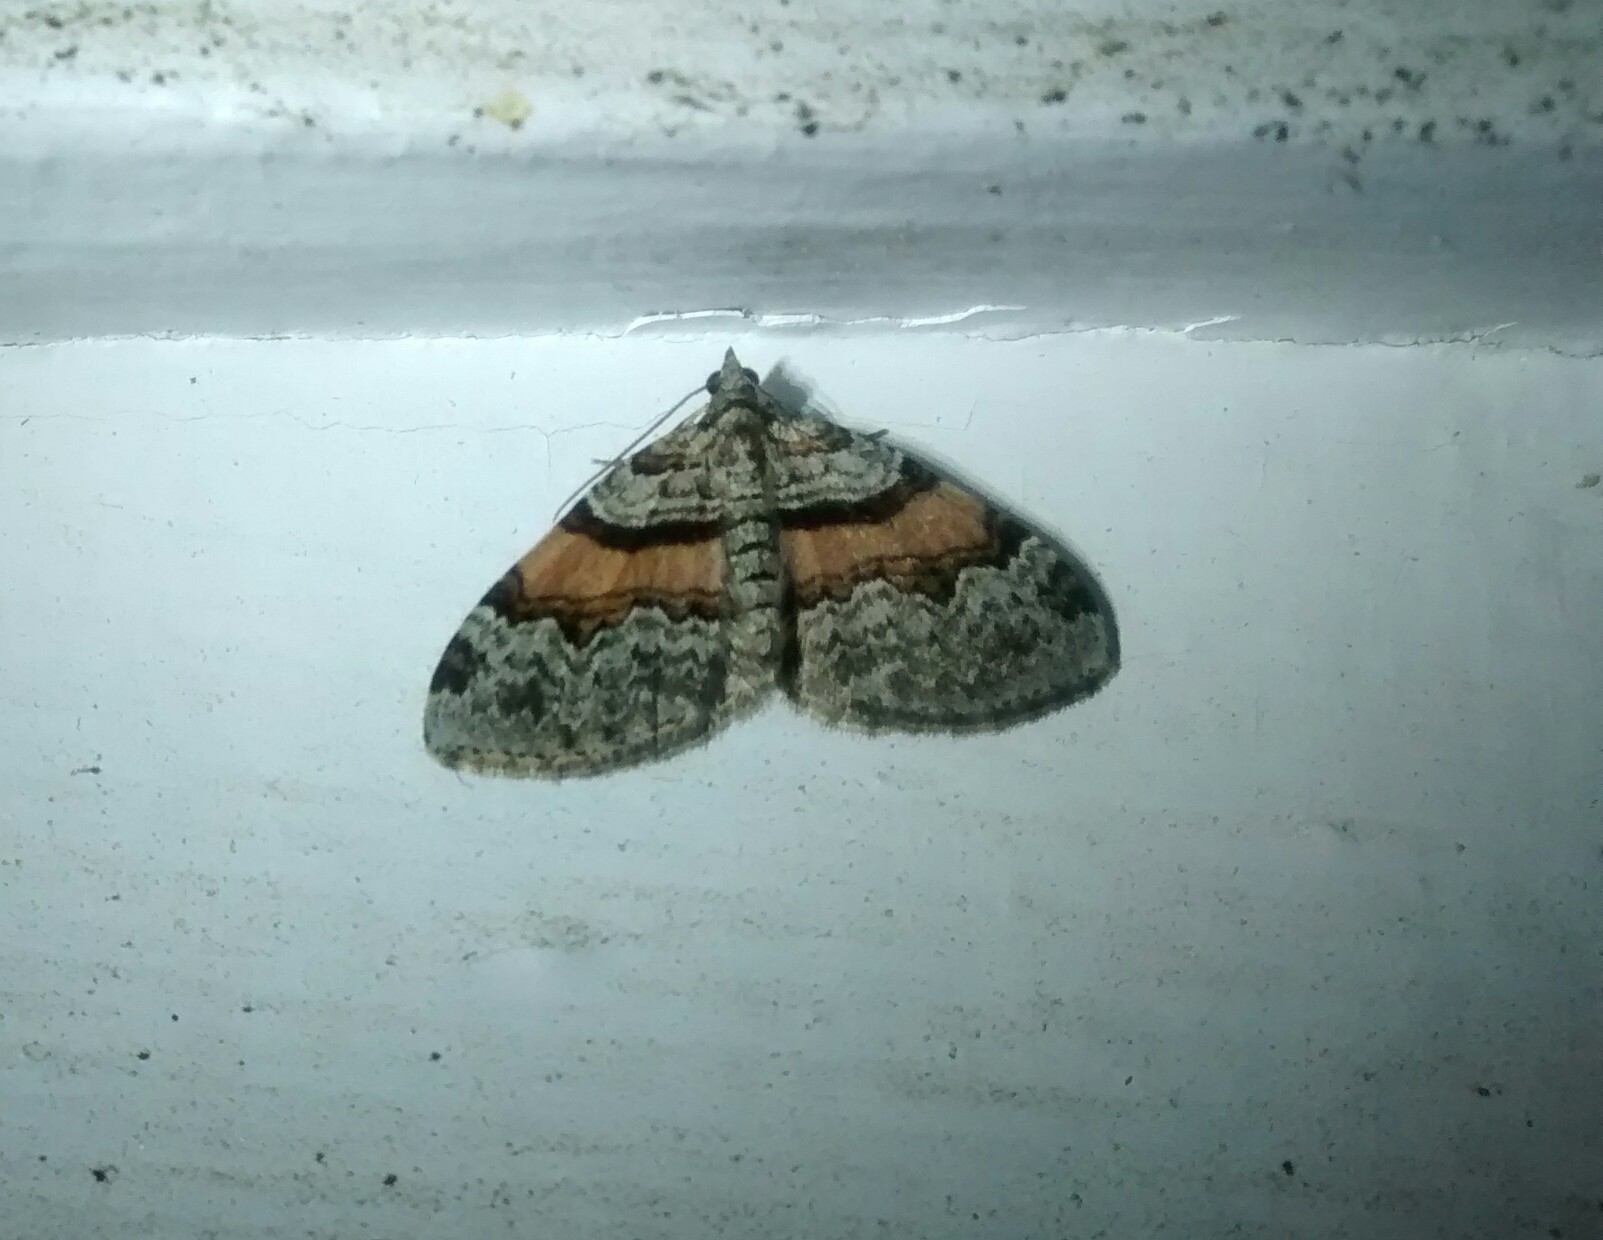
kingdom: Animalia
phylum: Arthropoda
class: Insecta
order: Lepidoptera
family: Geometridae
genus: Xanthorhoe
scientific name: Xanthorhoe labradorensis
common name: Labrador carpet
